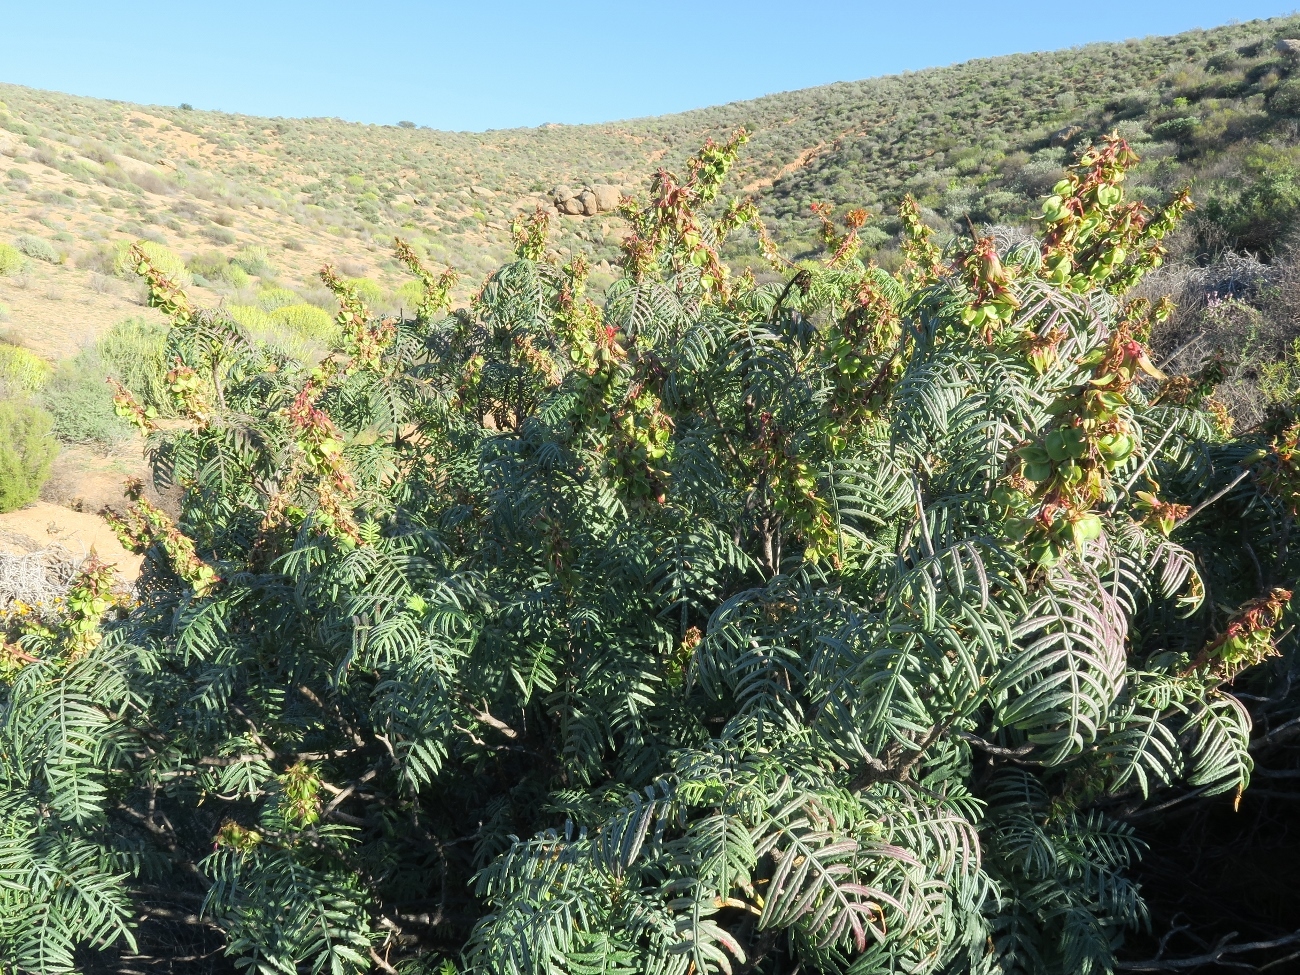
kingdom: Plantae
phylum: Tracheophyta
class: Magnoliopsida
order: Geraniales
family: Melianthaceae
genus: Melianthus
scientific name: Melianthus pectinatus
